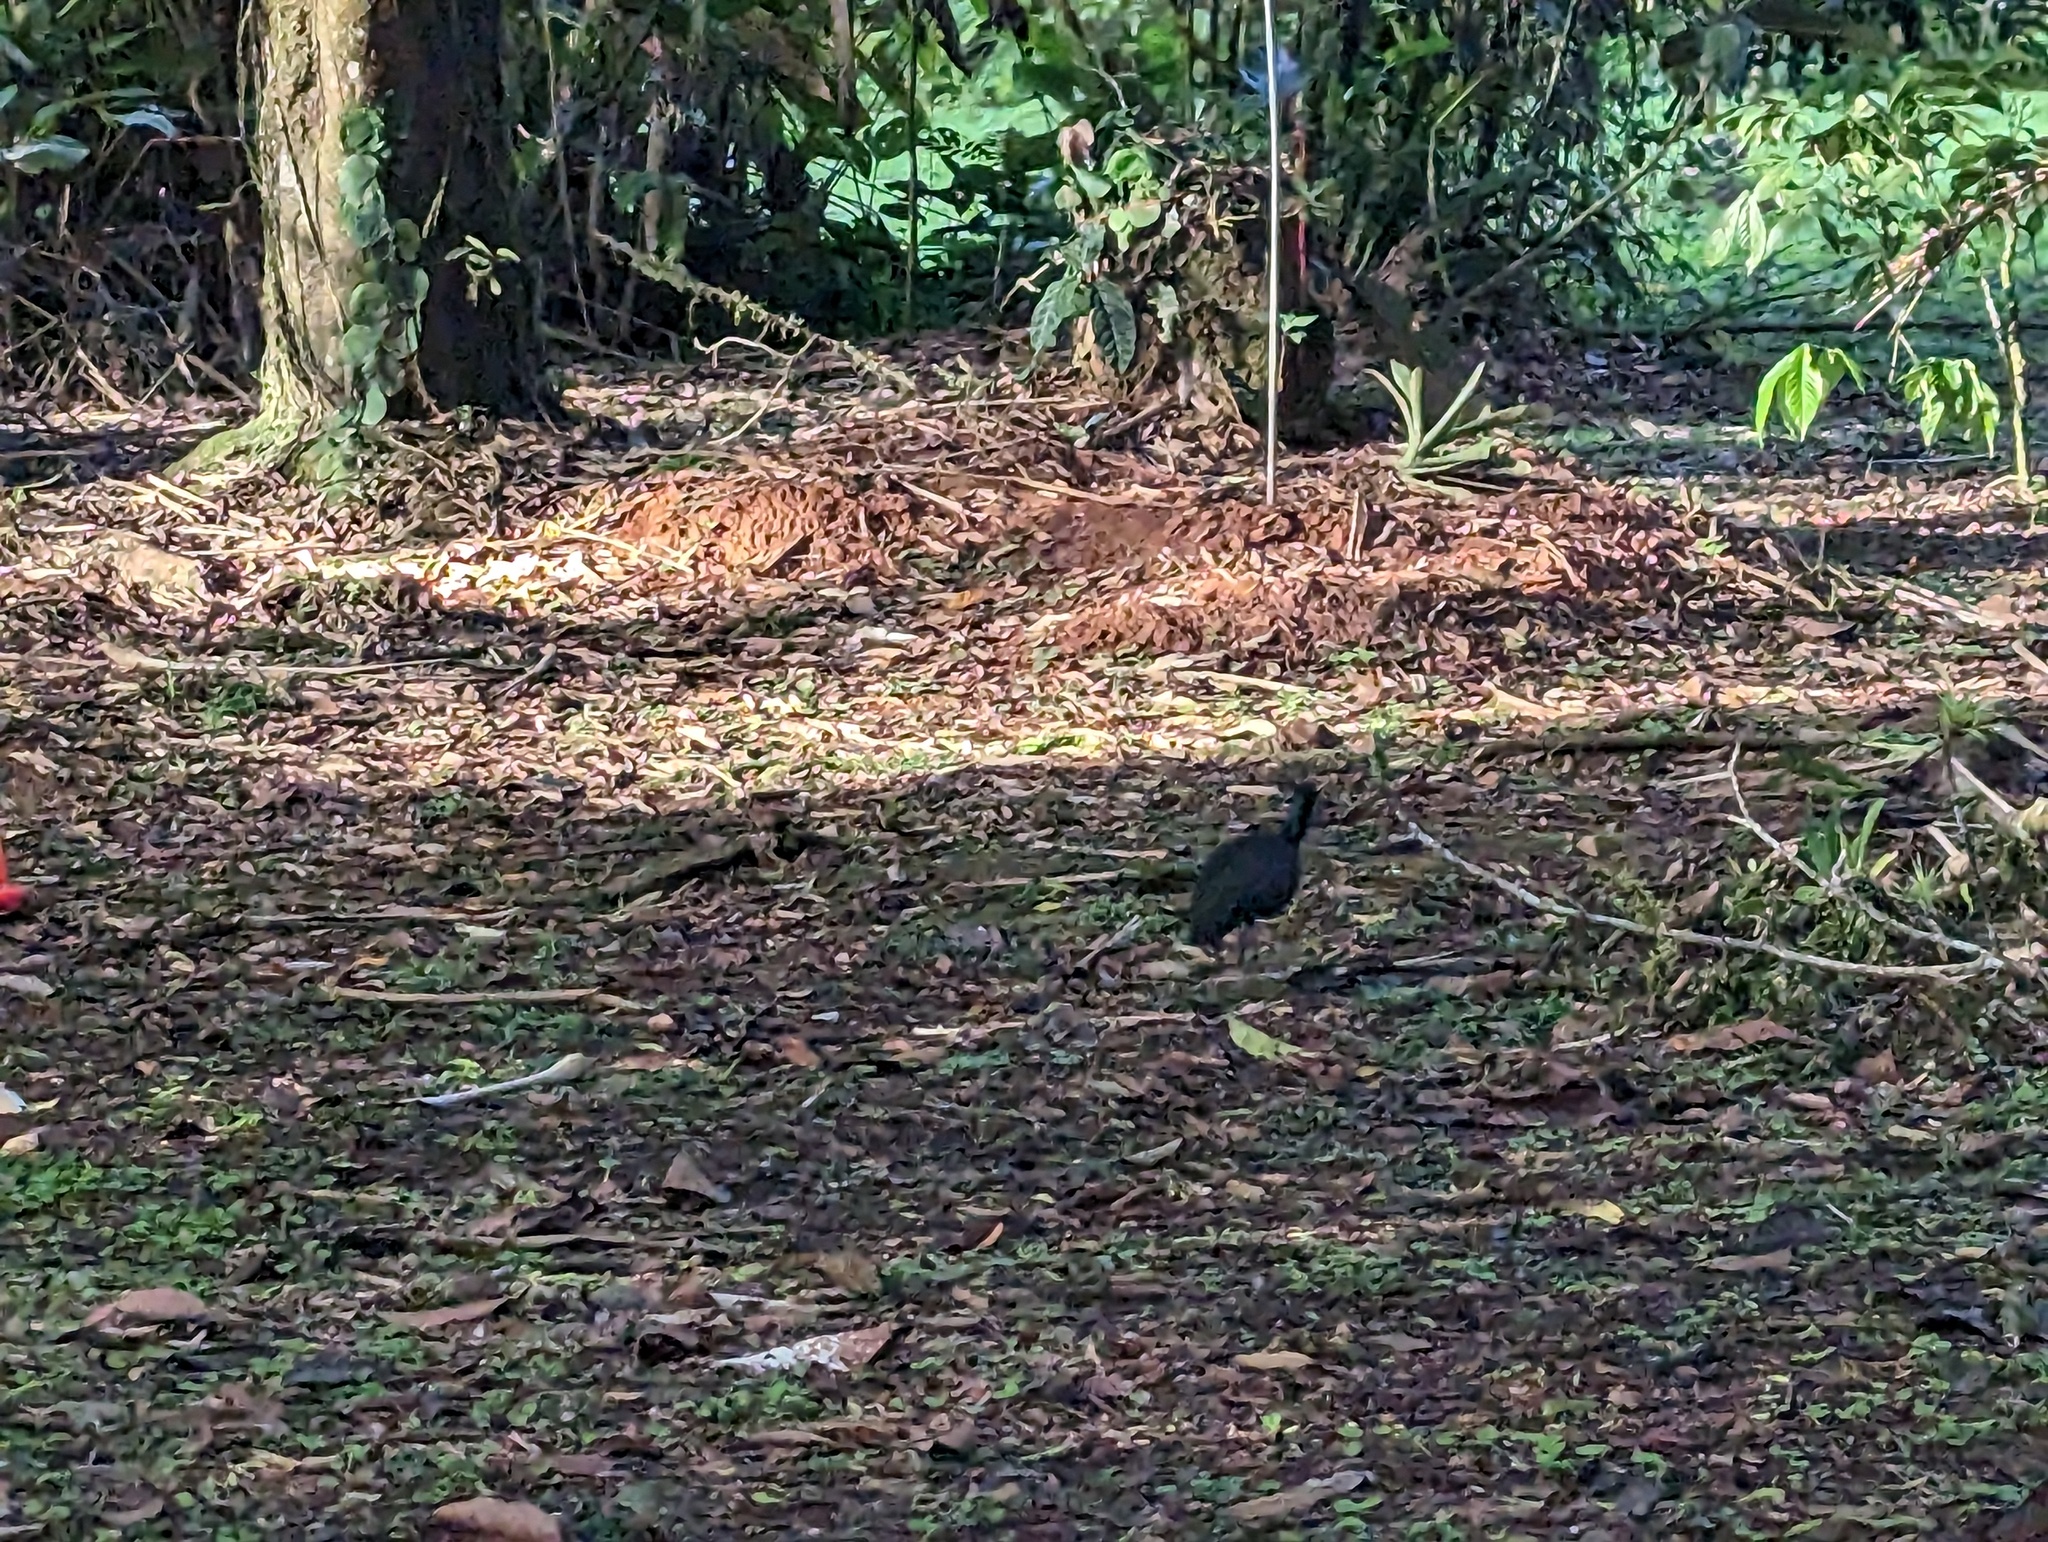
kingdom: Animalia
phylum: Chordata
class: Aves
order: Pelecaniformes
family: Threskiornithidae
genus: Mesembrinibis
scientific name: Mesembrinibis cayennensis
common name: Green ibis
